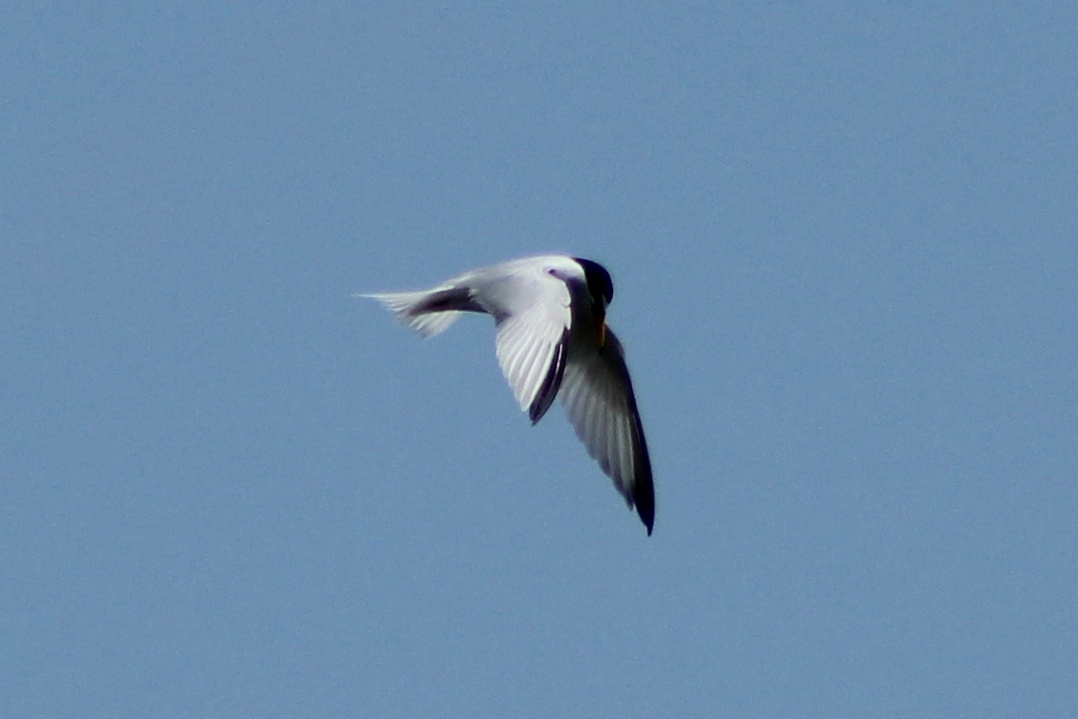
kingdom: Animalia
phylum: Chordata
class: Aves
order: Charadriiformes
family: Laridae
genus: Sternula
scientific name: Sternula antillarum
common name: Least tern
